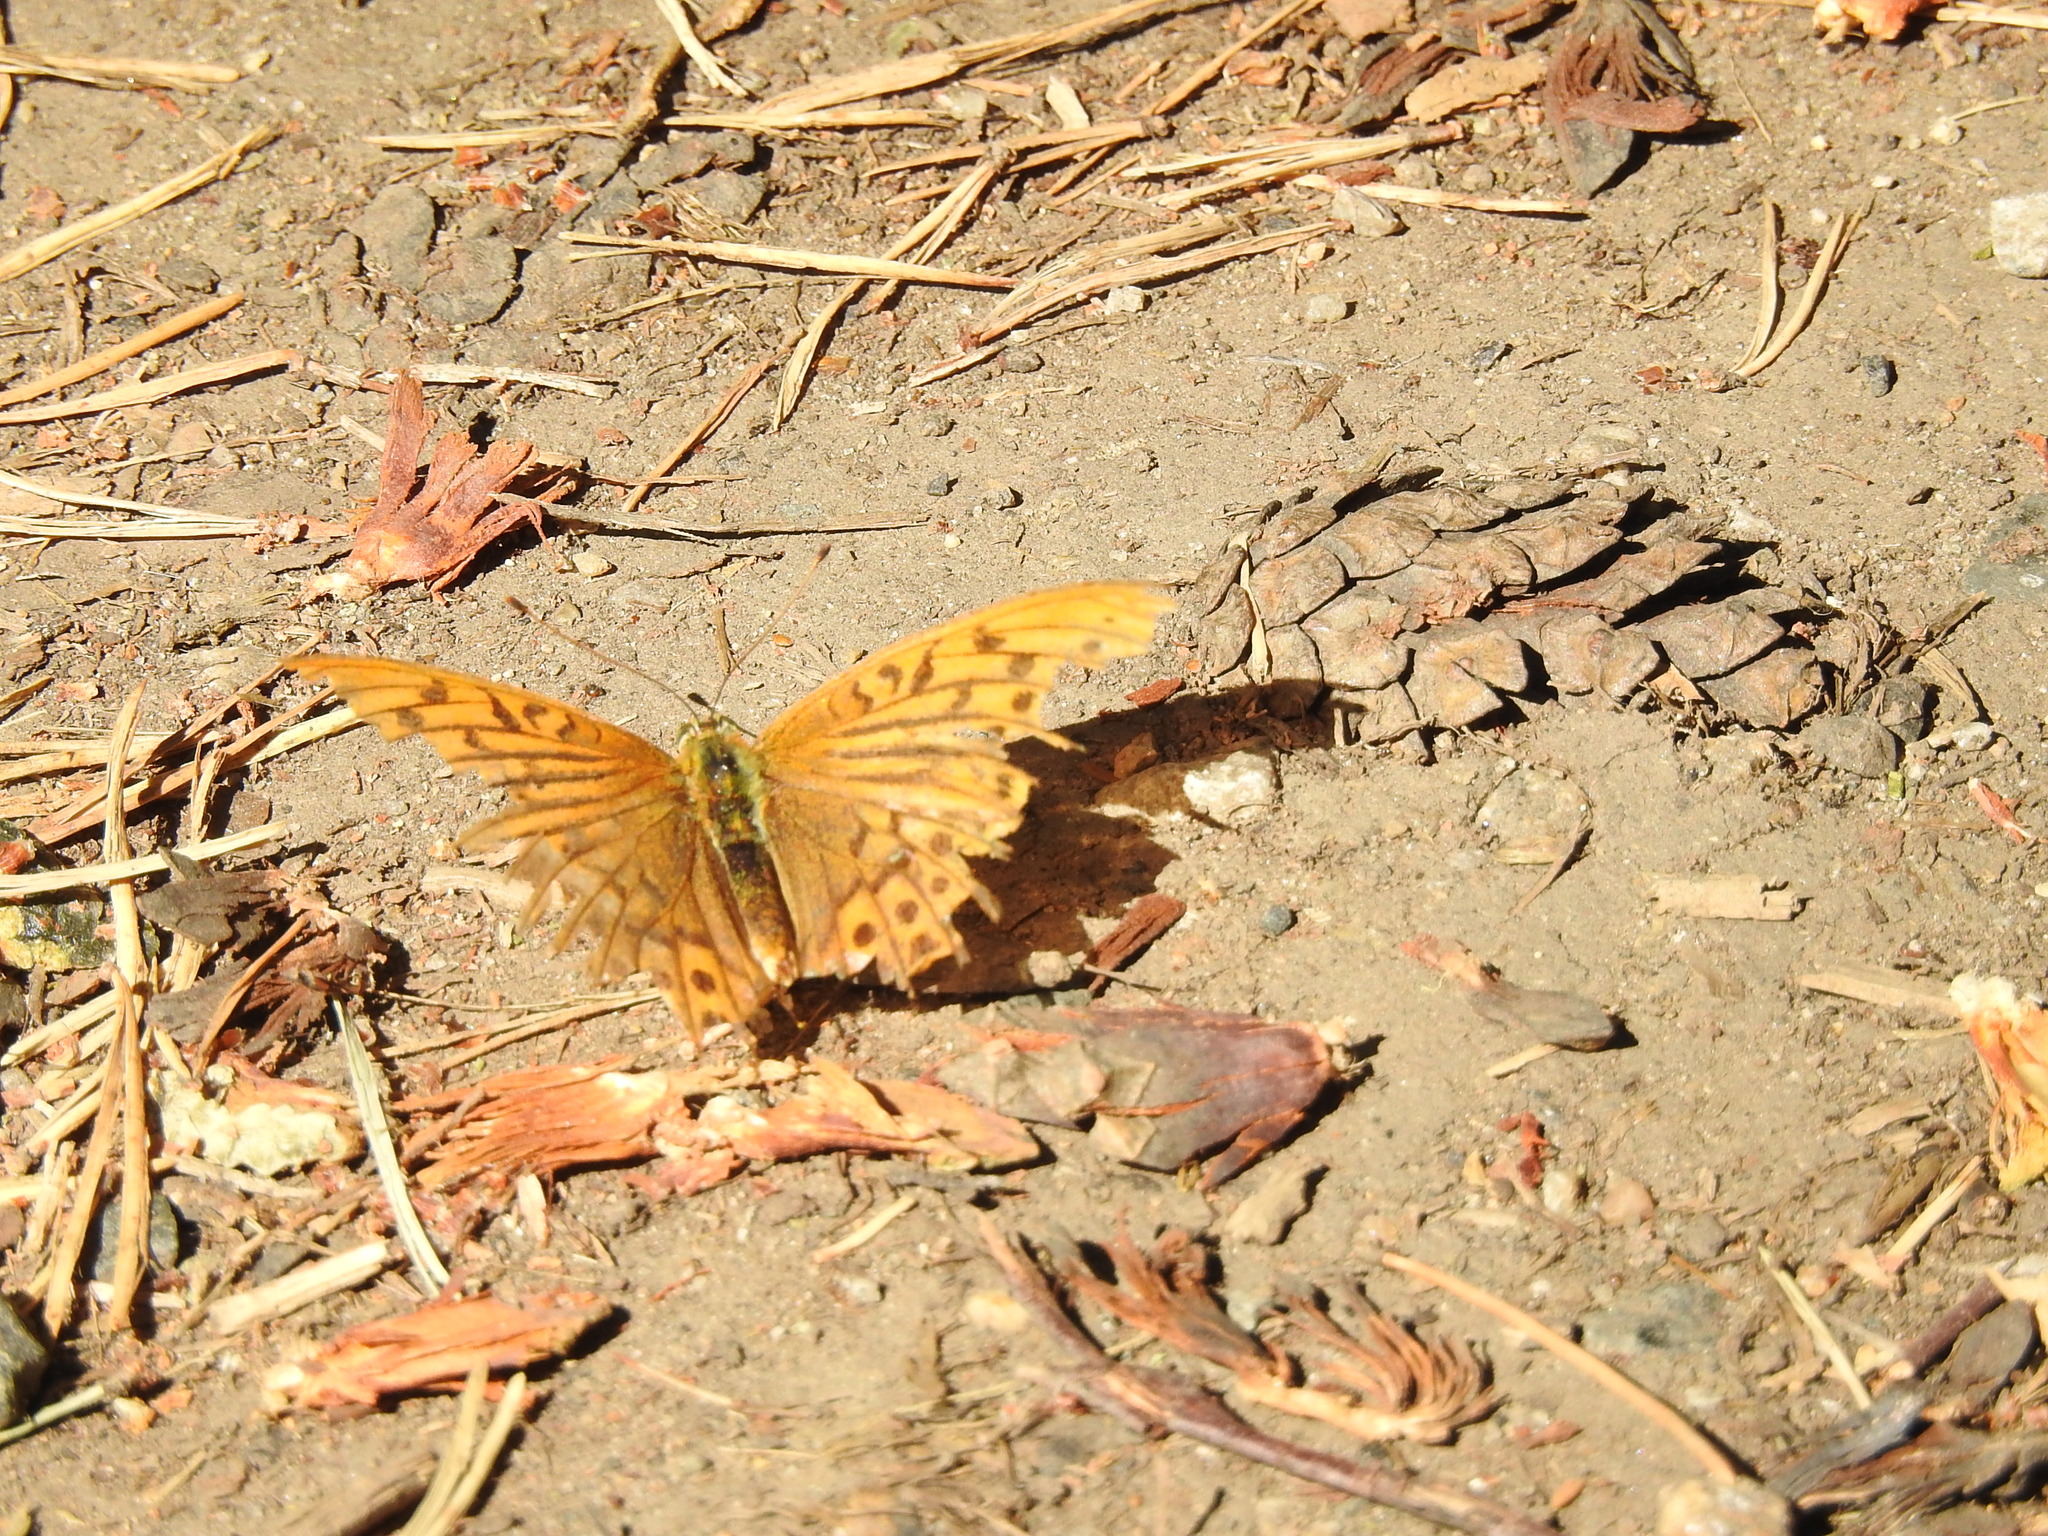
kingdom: Animalia
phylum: Arthropoda
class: Insecta
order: Lepidoptera
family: Nymphalidae
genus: Argynnis
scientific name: Argynnis paphia
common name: Silver-washed fritillary
